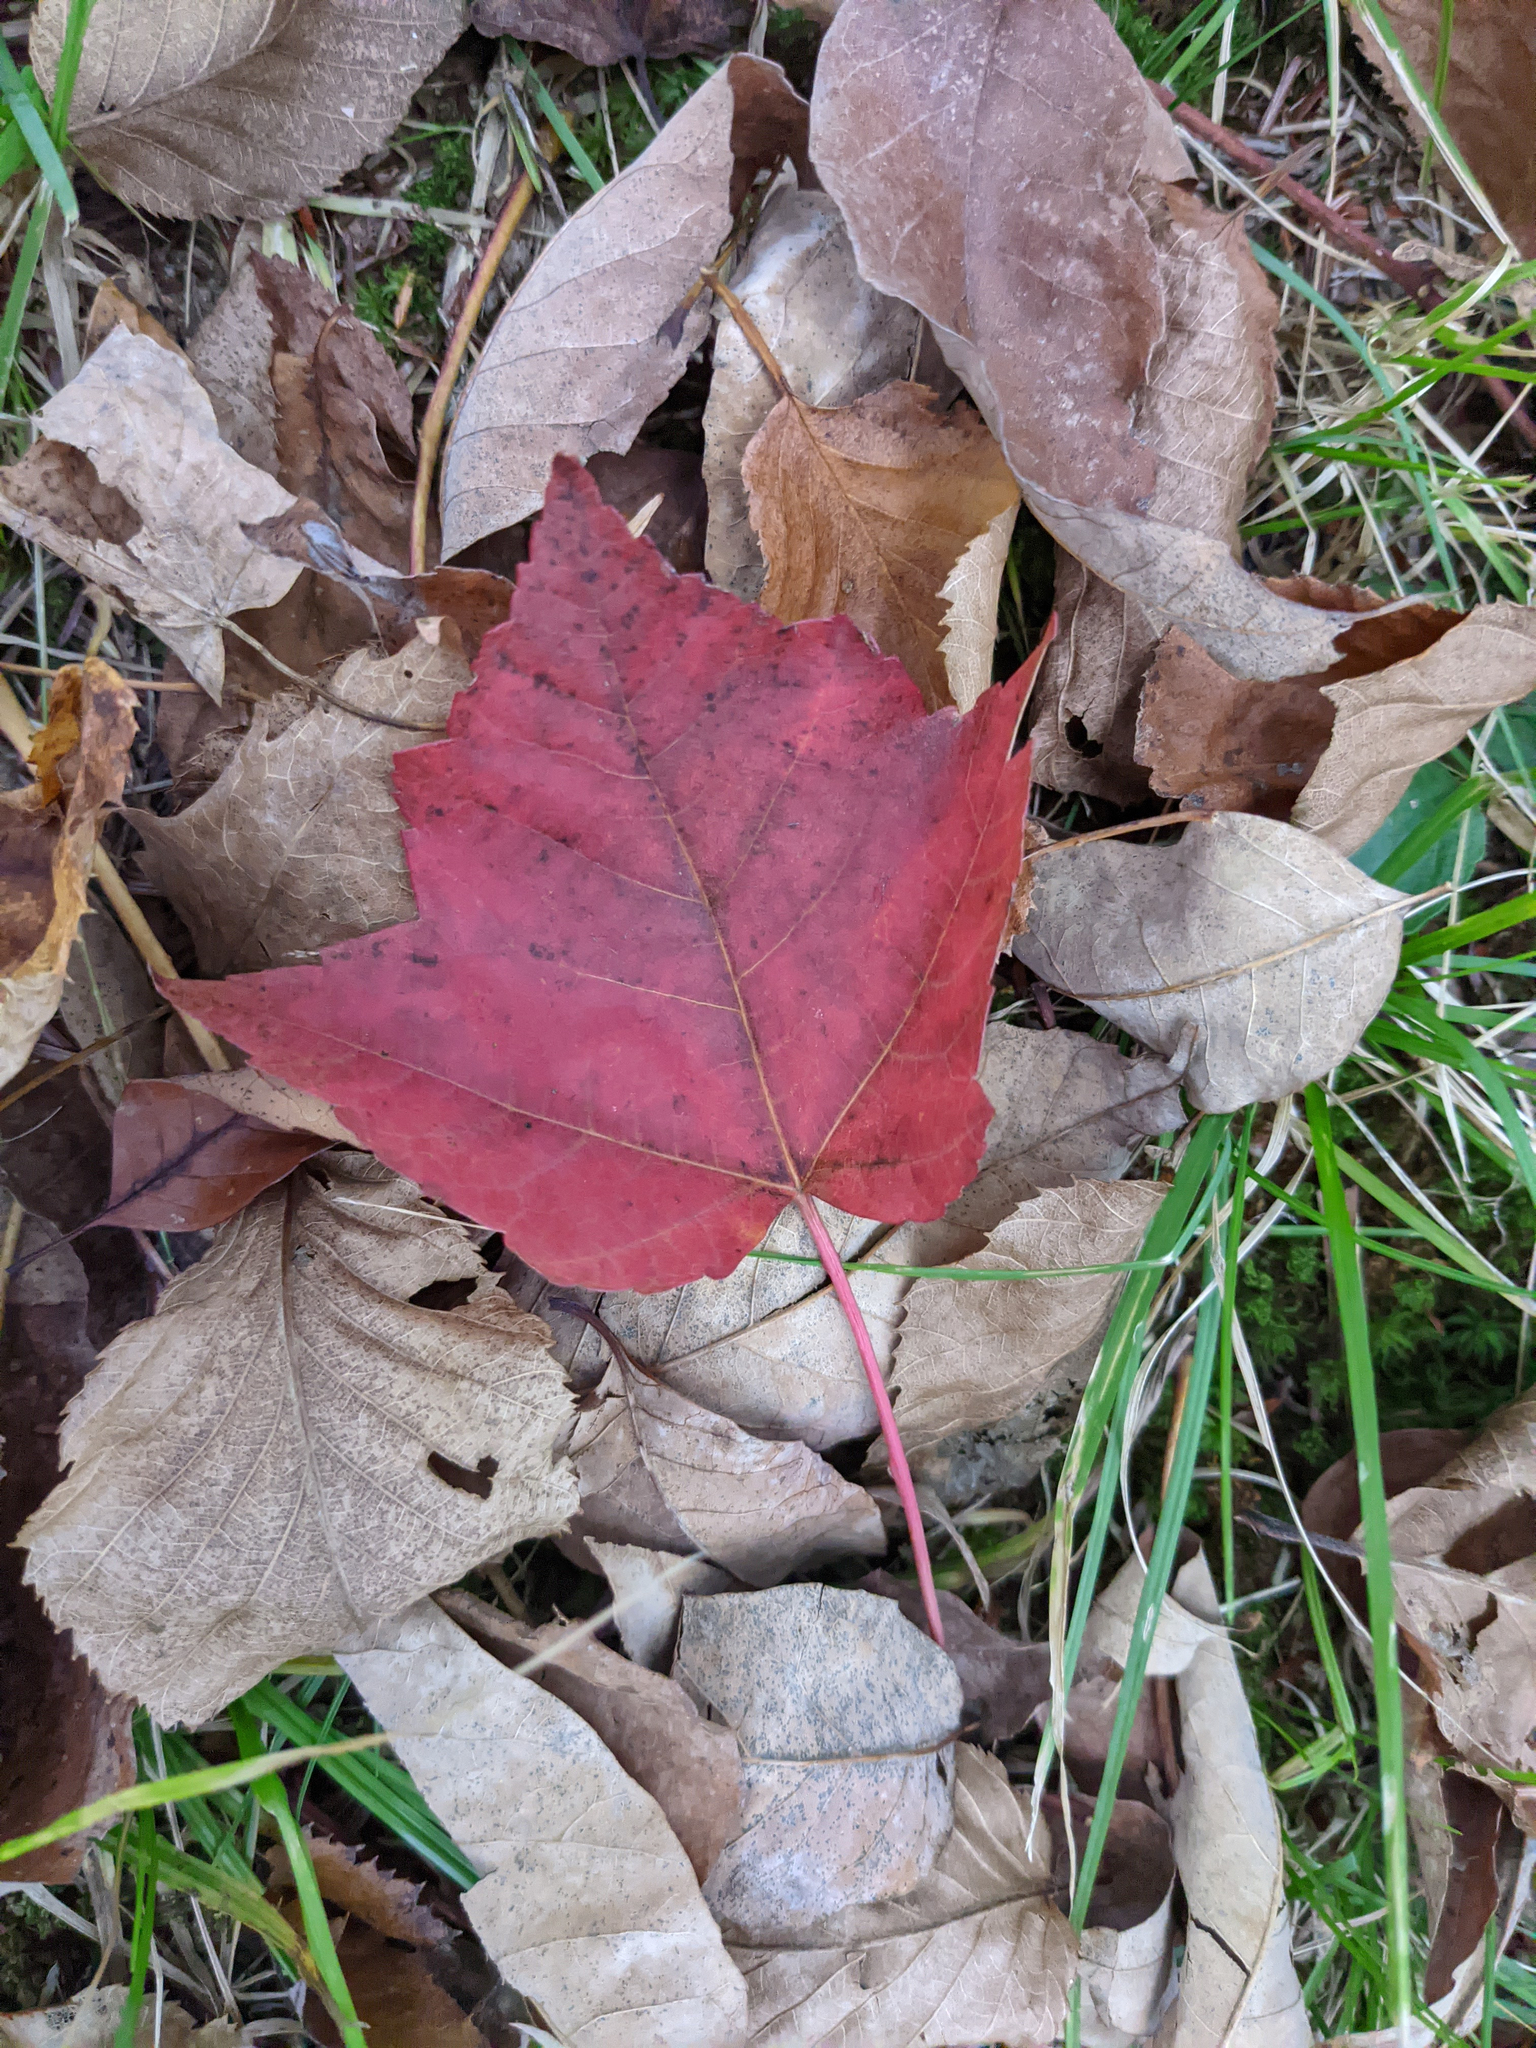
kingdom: Plantae
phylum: Tracheophyta
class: Magnoliopsida
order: Sapindales
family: Sapindaceae
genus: Acer
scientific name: Acer rubrum
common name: Red maple
